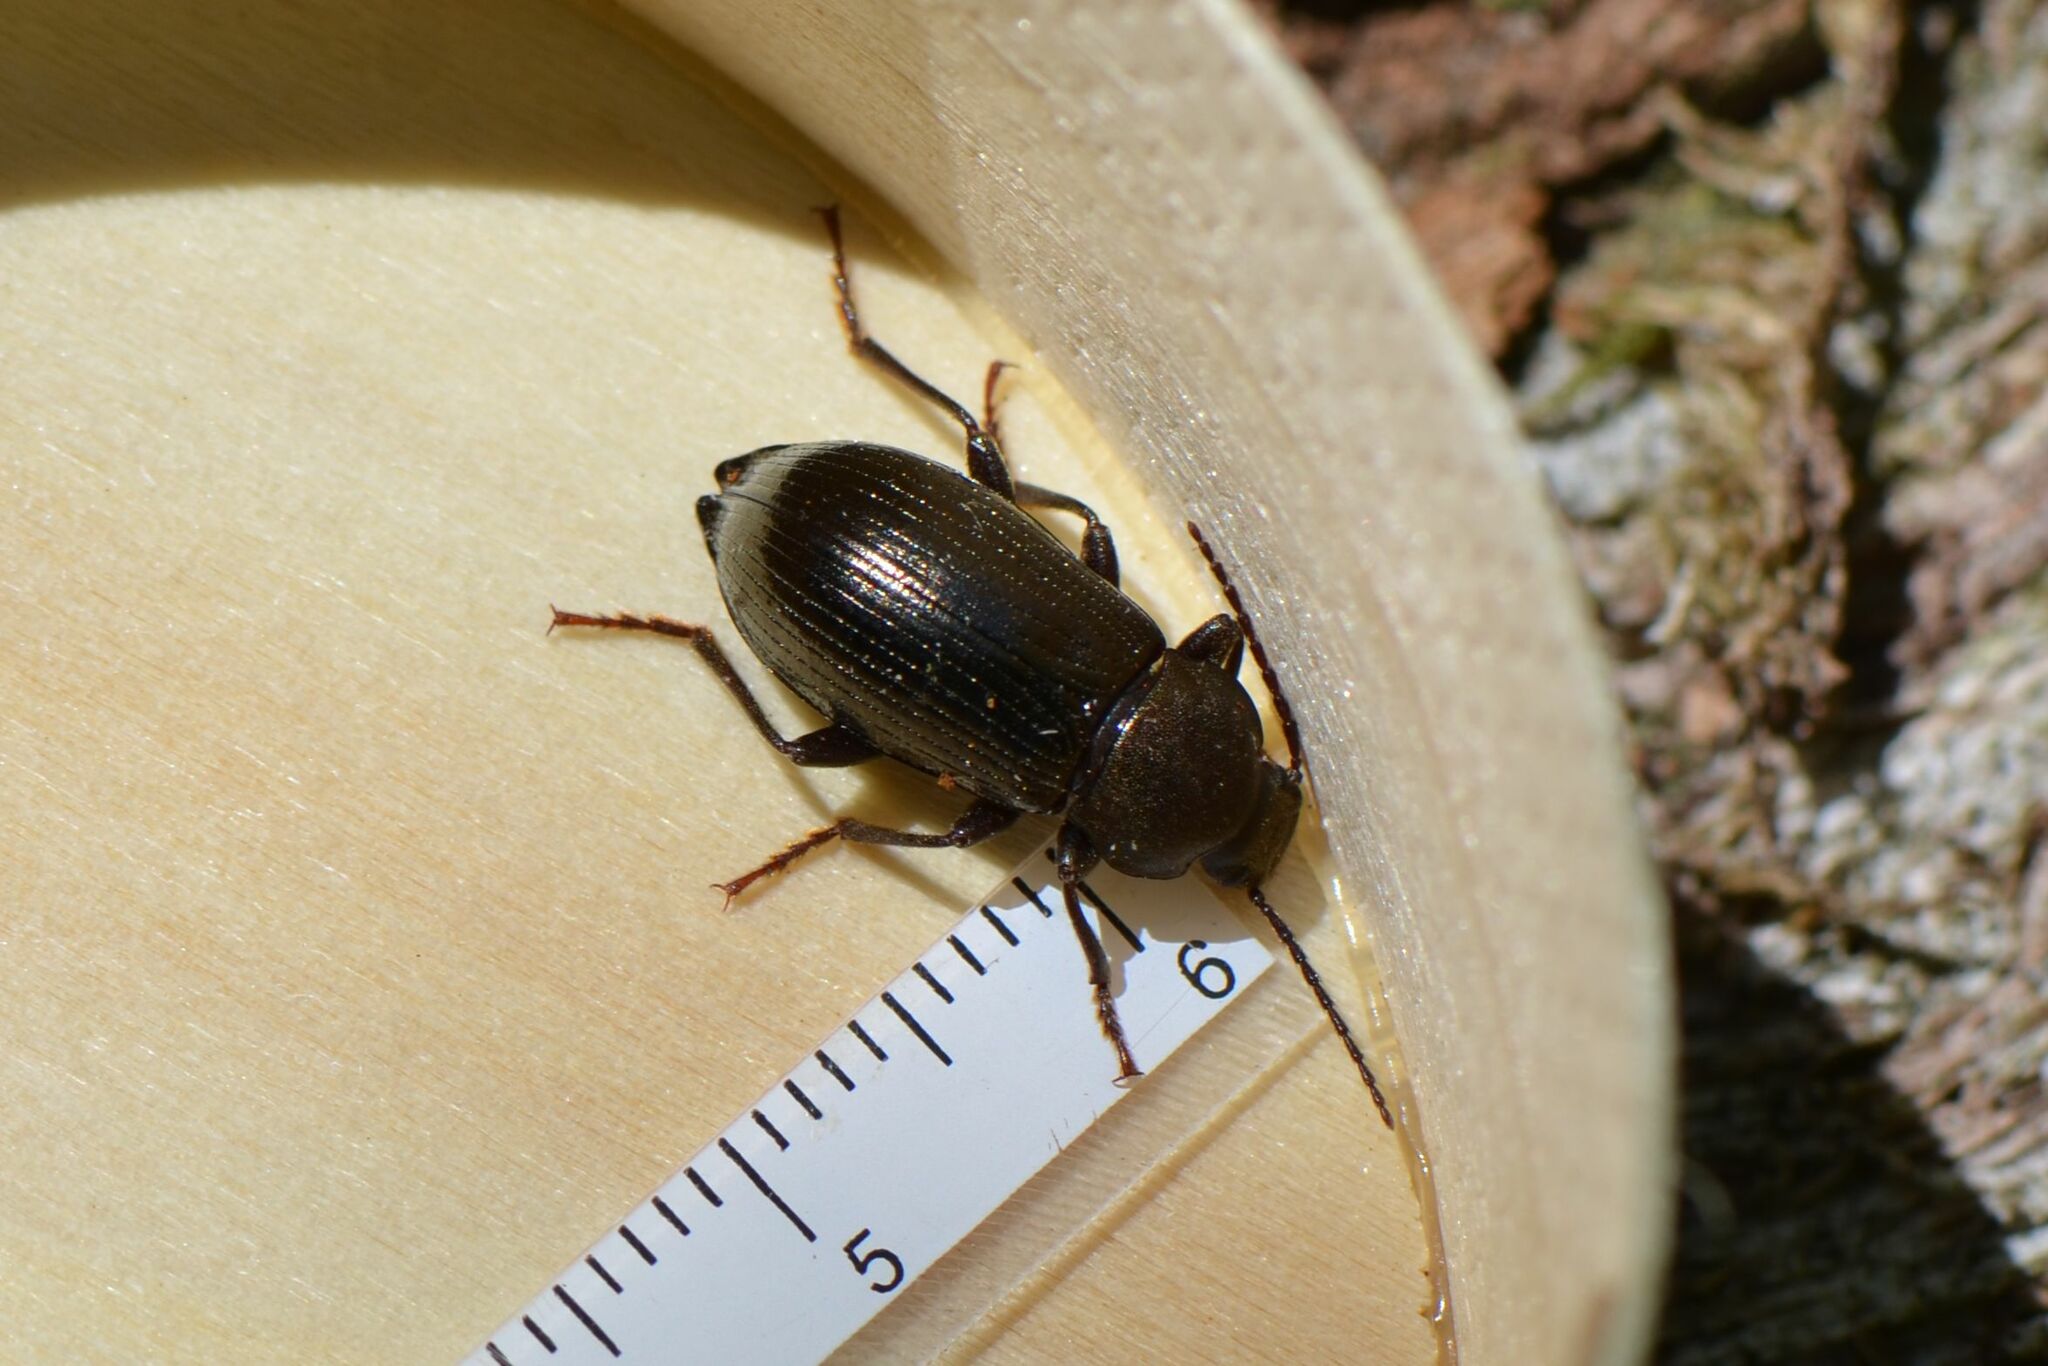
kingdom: Animalia
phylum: Arthropoda
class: Insecta
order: Coleoptera
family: Tenebrionidae
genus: Stenomax
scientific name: Stenomax aeneus
